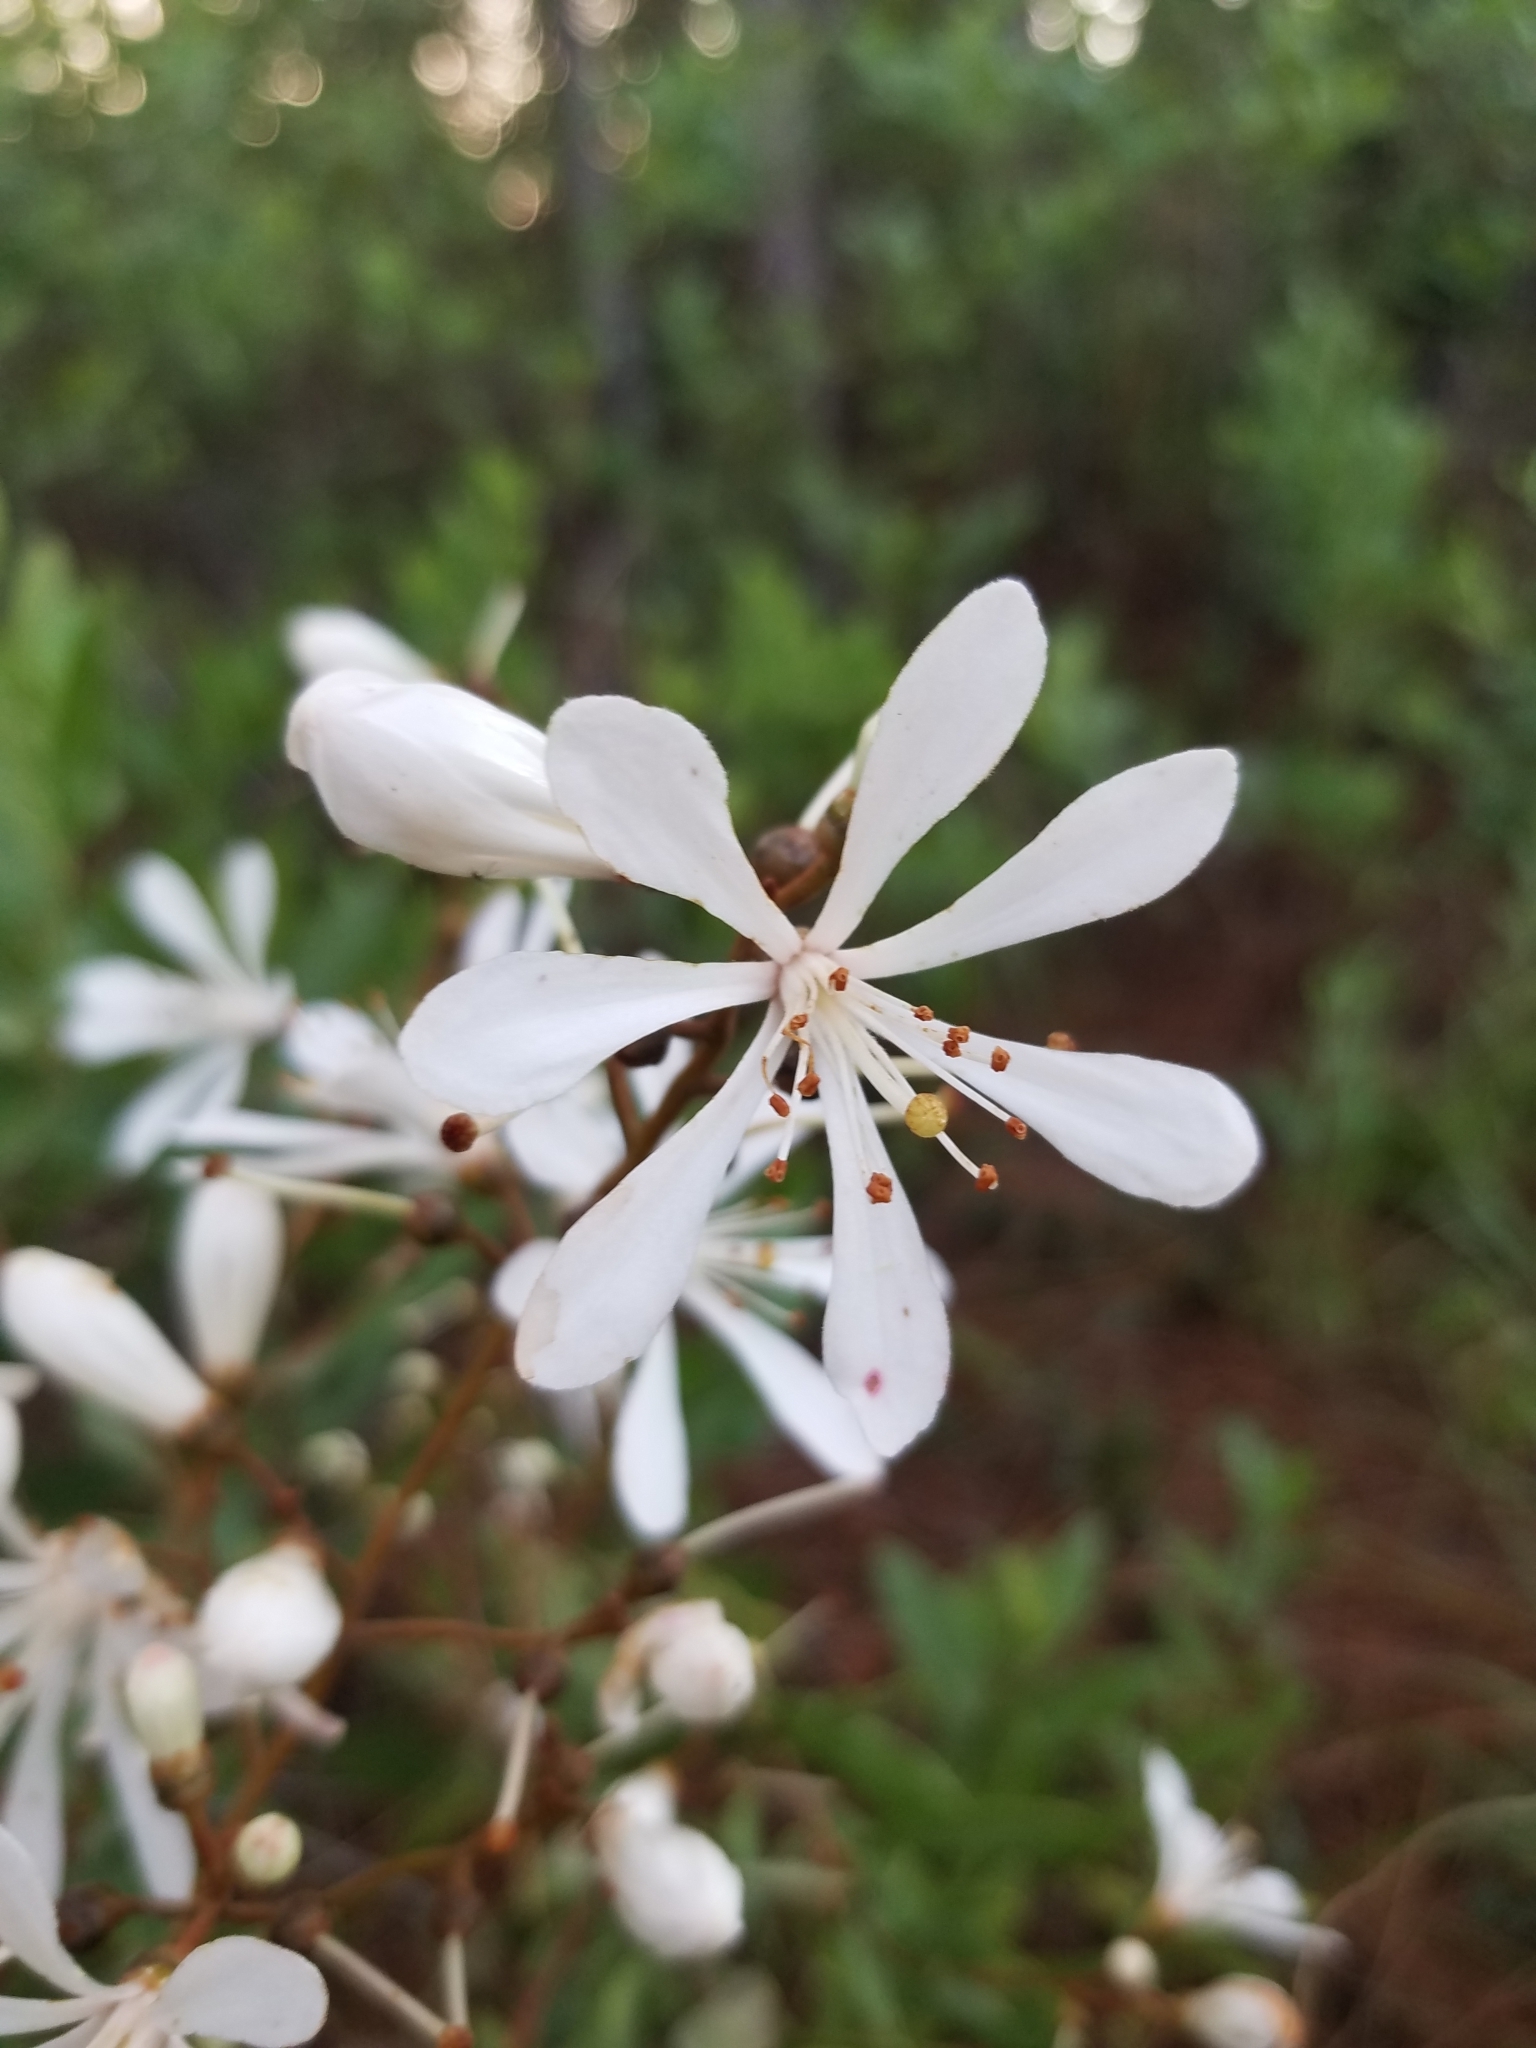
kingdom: Plantae
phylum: Tracheophyta
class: Magnoliopsida
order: Ericales
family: Ericaceae
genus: Bejaria
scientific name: Bejaria racemosa
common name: Tarflower
